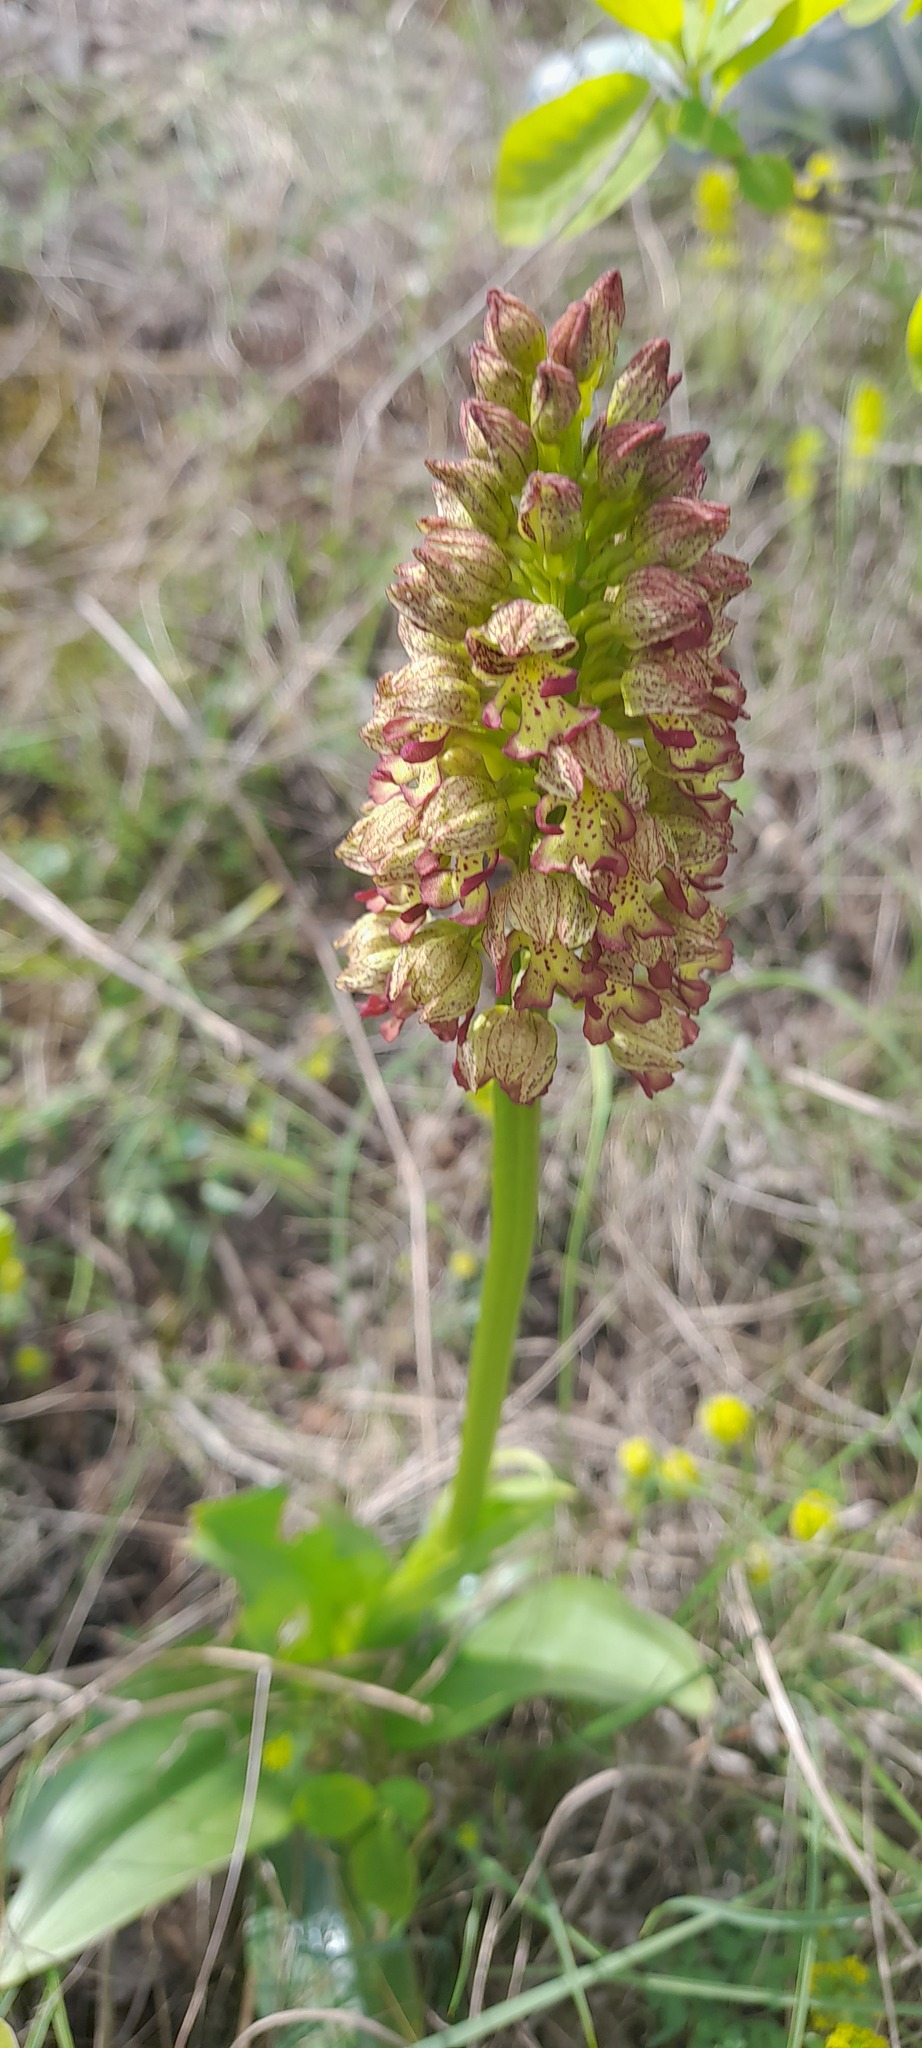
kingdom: Plantae
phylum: Tracheophyta
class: Liliopsida
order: Asparagales
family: Orchidaceae
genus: Orchis
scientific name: Orchis wulffiana
